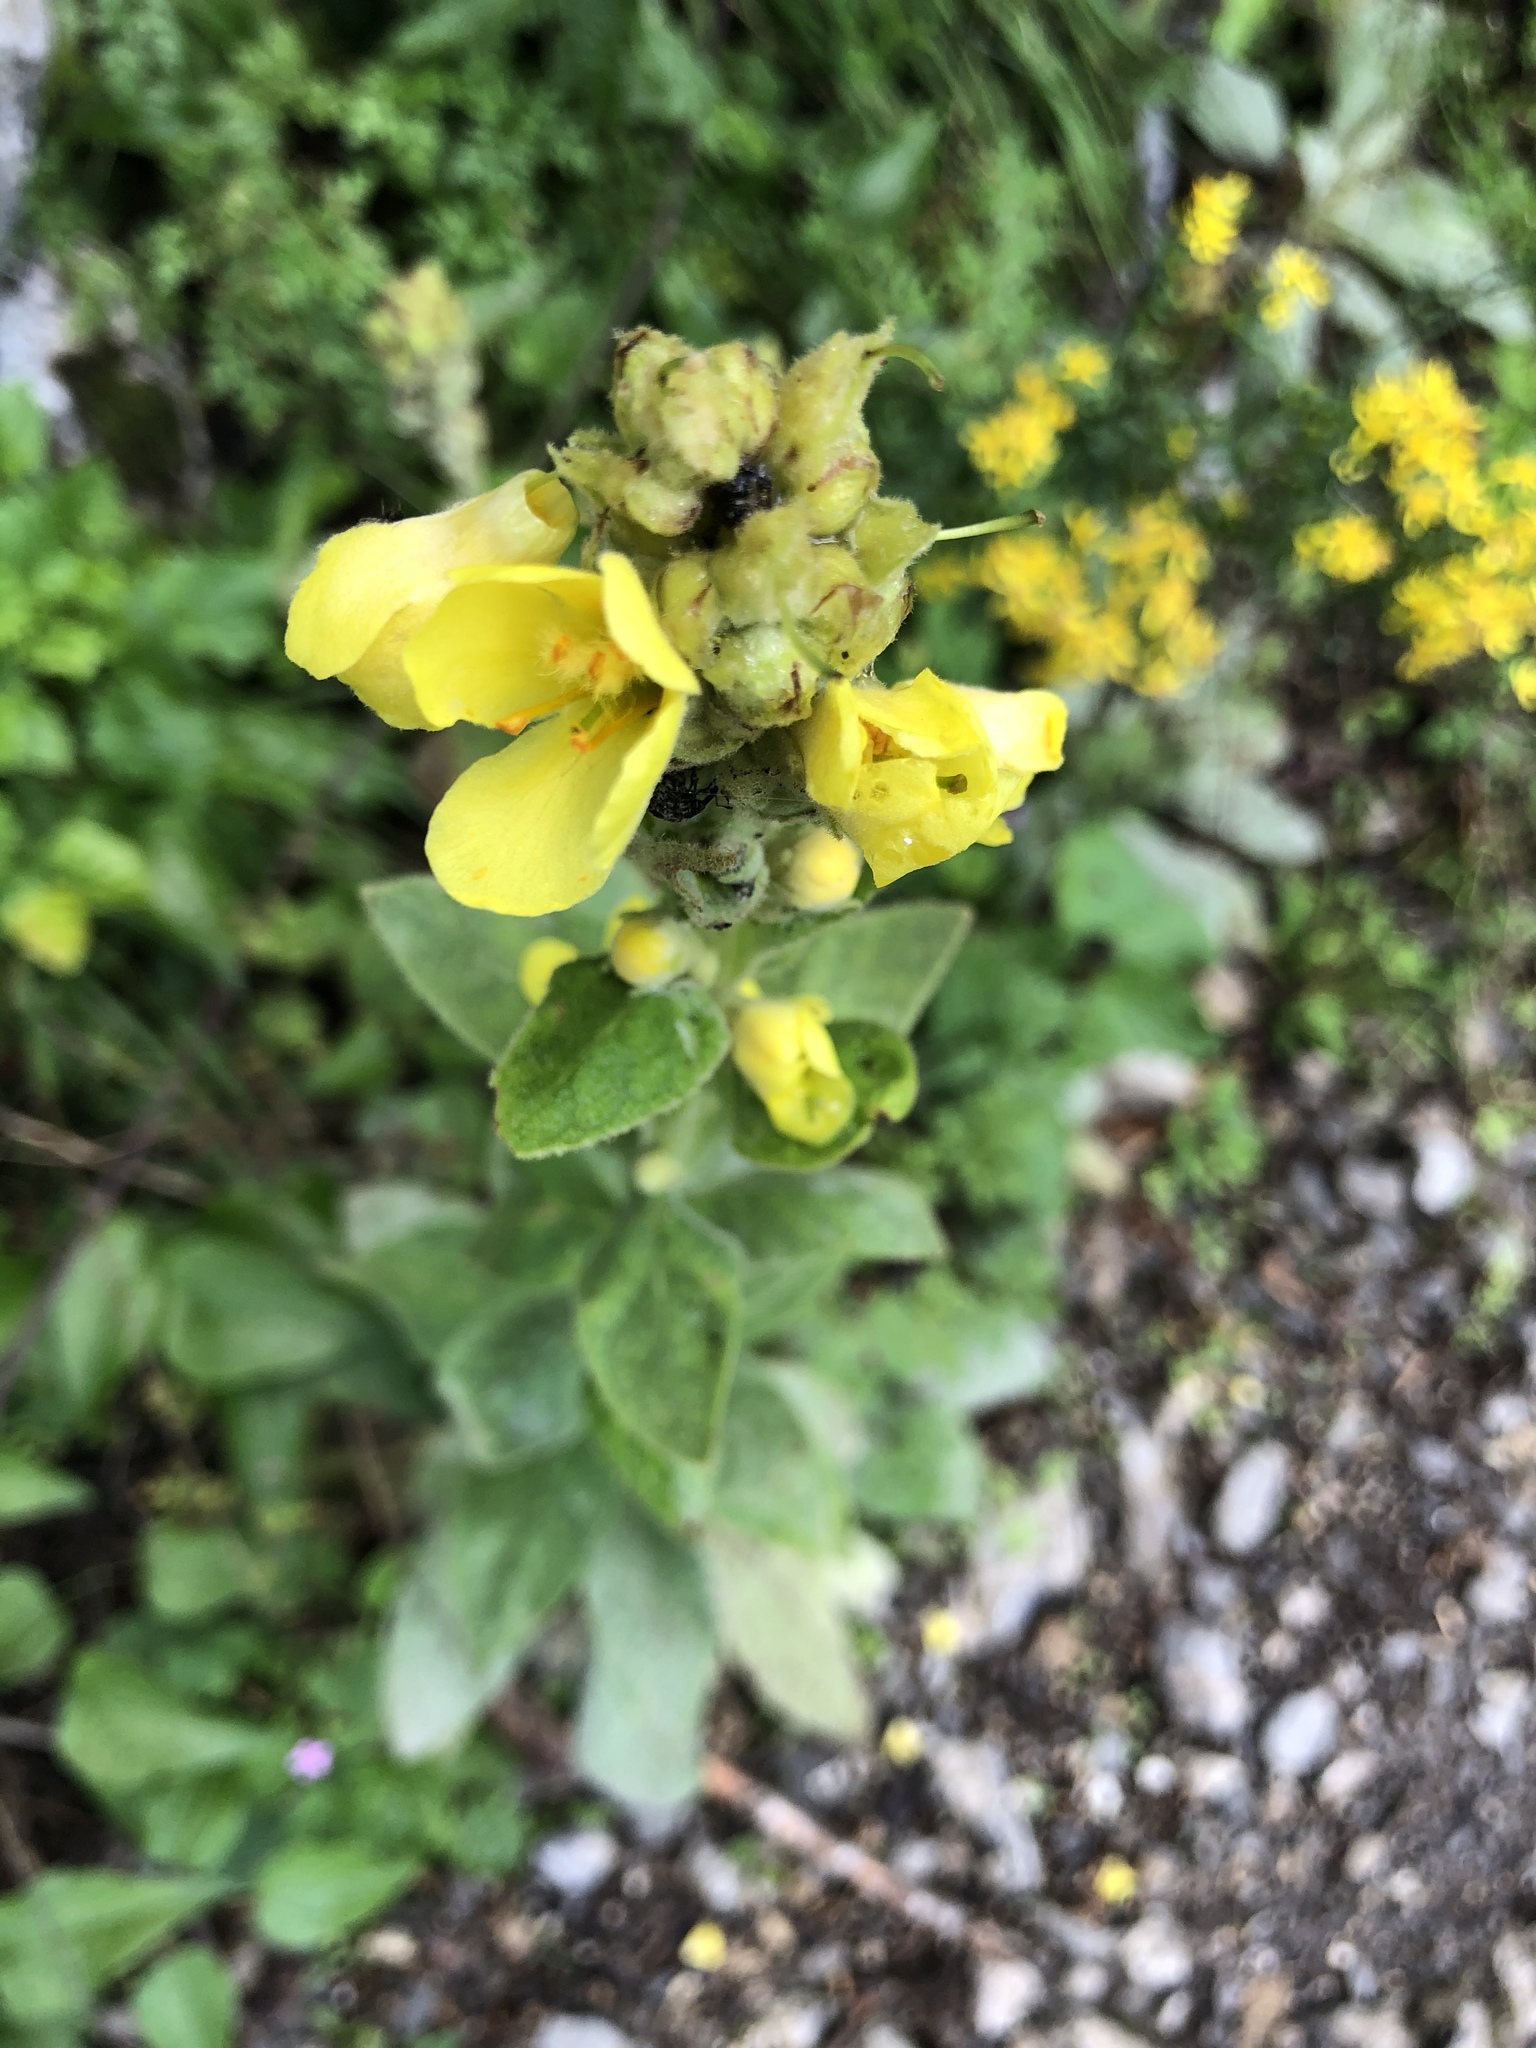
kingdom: Plantae
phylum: Tracheophyta
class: Magnoliopsida
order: Lamiales
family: Scrophulariaceae
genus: Verbascum
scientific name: Verbascum thapsus
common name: Common mullein
